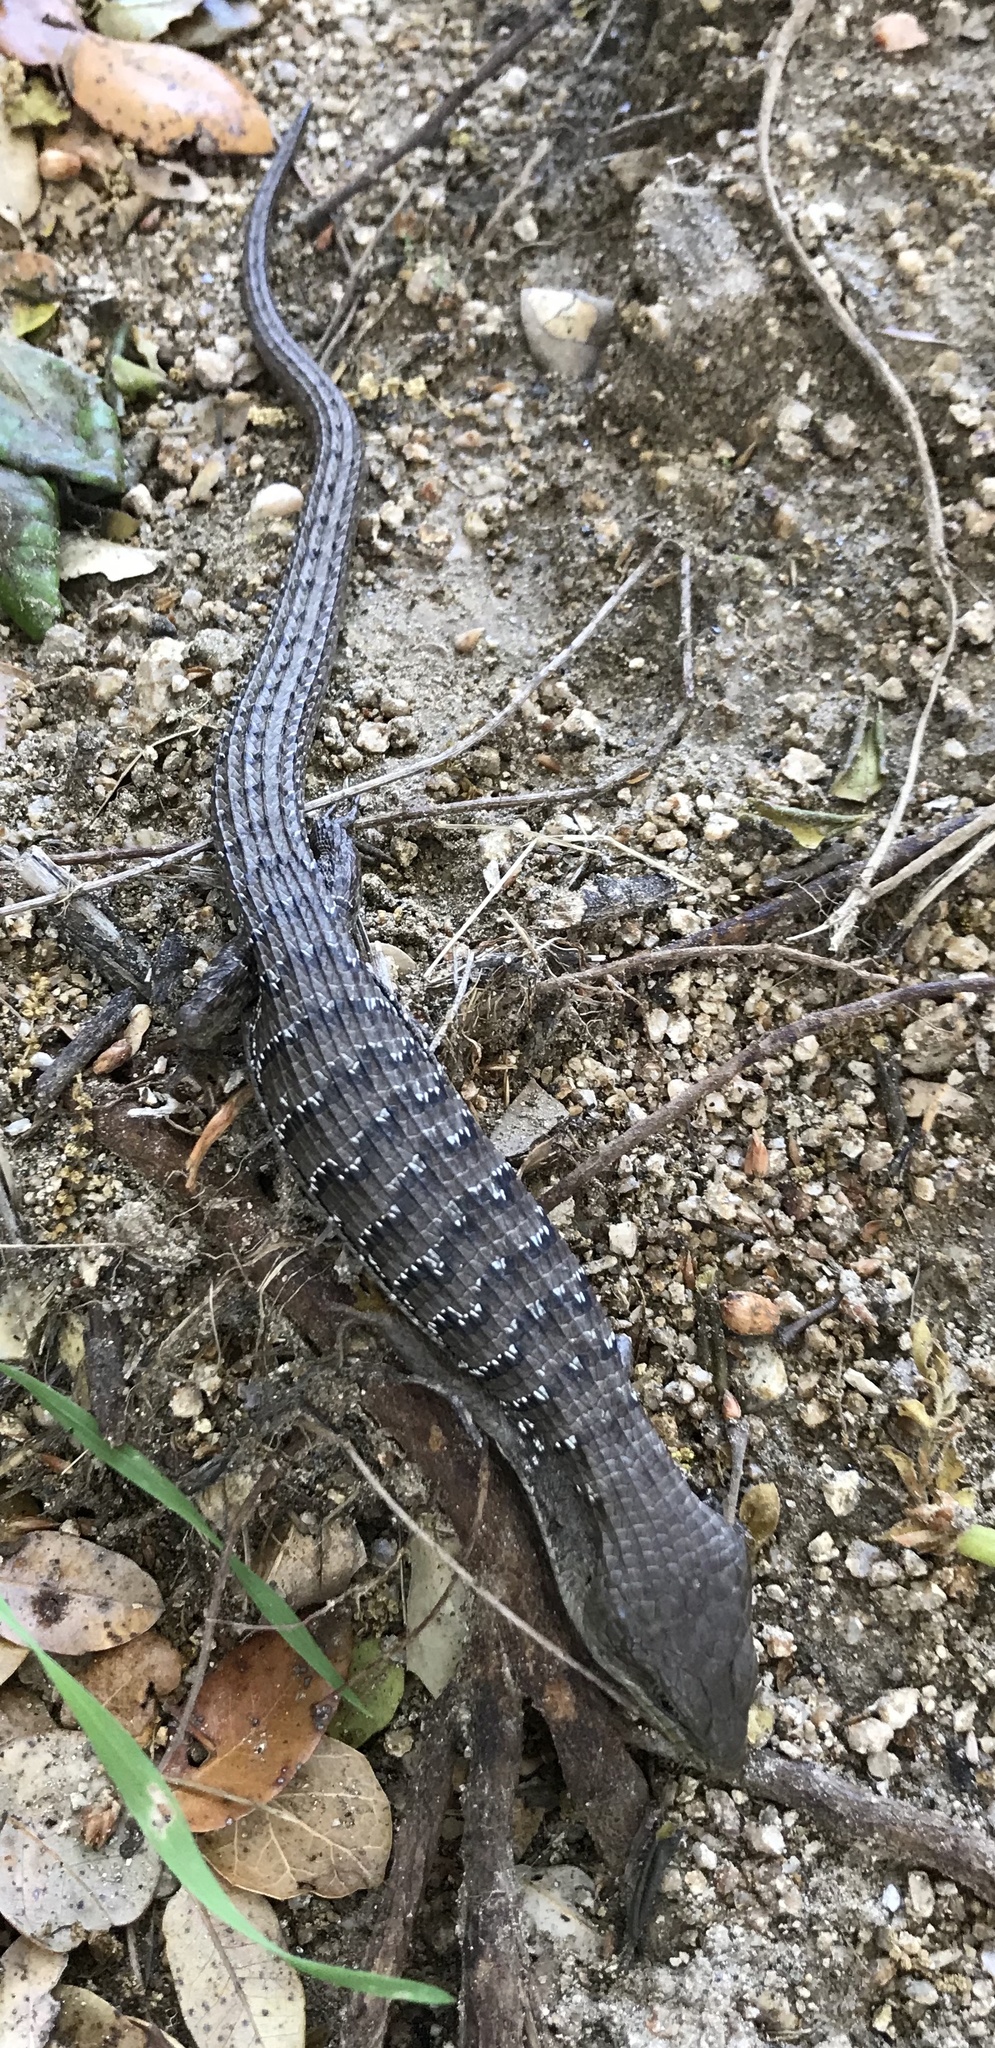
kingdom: Animalia
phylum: Chordata
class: Squamata
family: Anguidae
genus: Elgaria
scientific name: Elgaria multicarinata
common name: Southern alligator lizard
